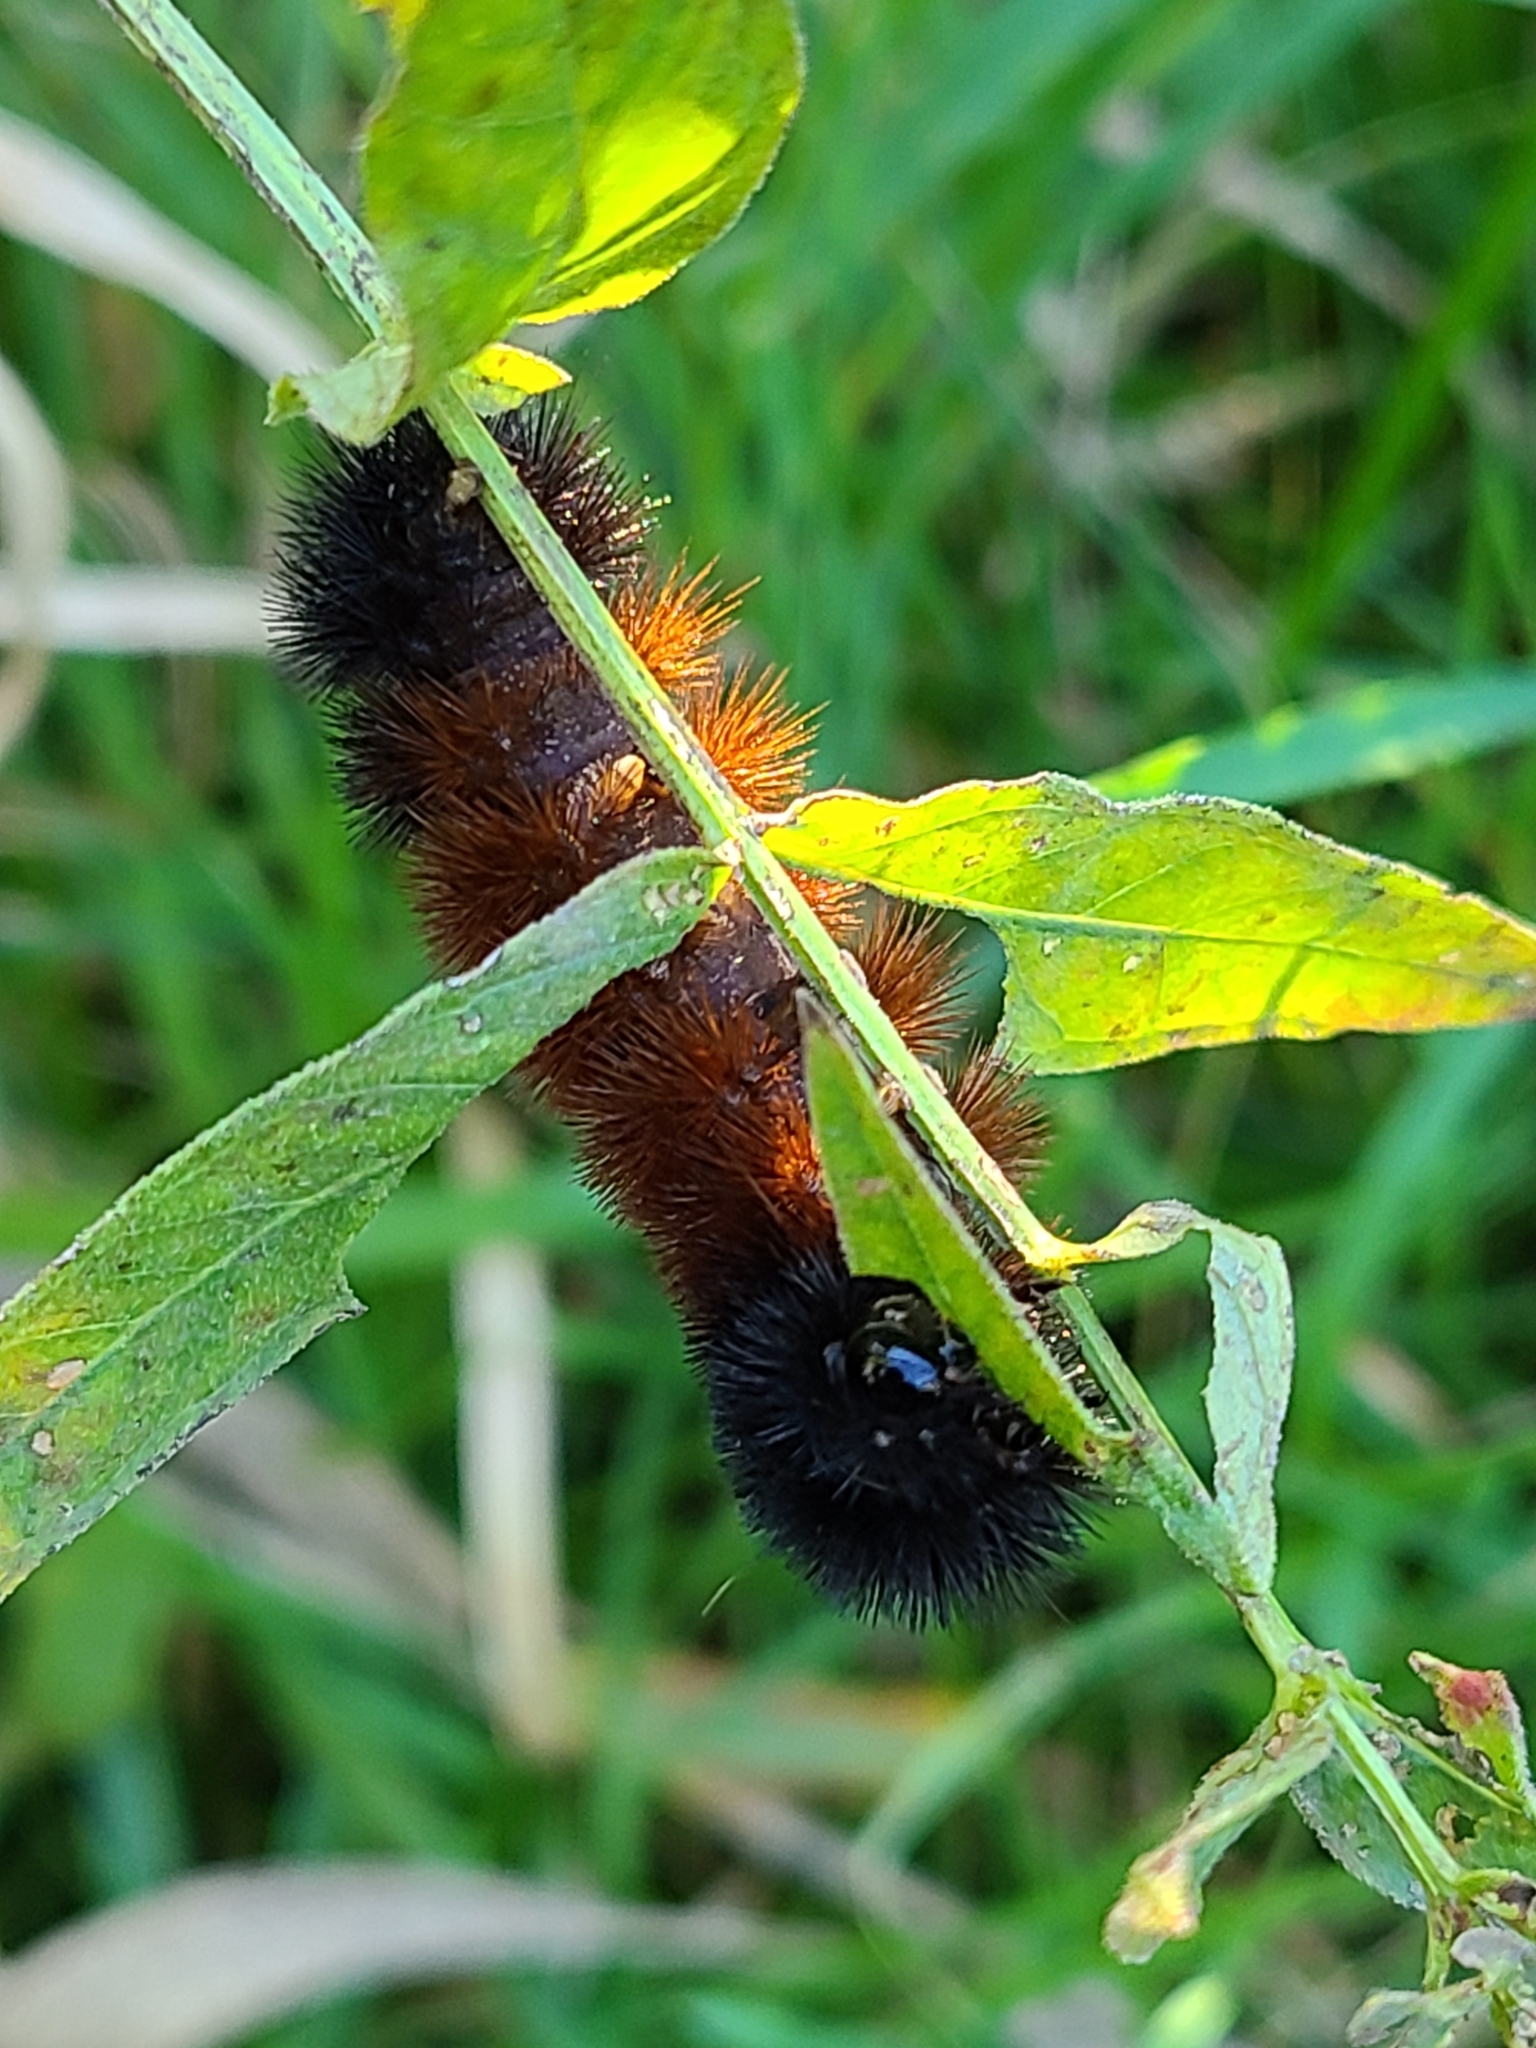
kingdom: Animalia
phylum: Arthropoda
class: Insecta
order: Lepidoptera
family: Erebidae
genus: Pyrrharctia
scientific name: Pyrrharctia isabella
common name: Isabella tiger moth
